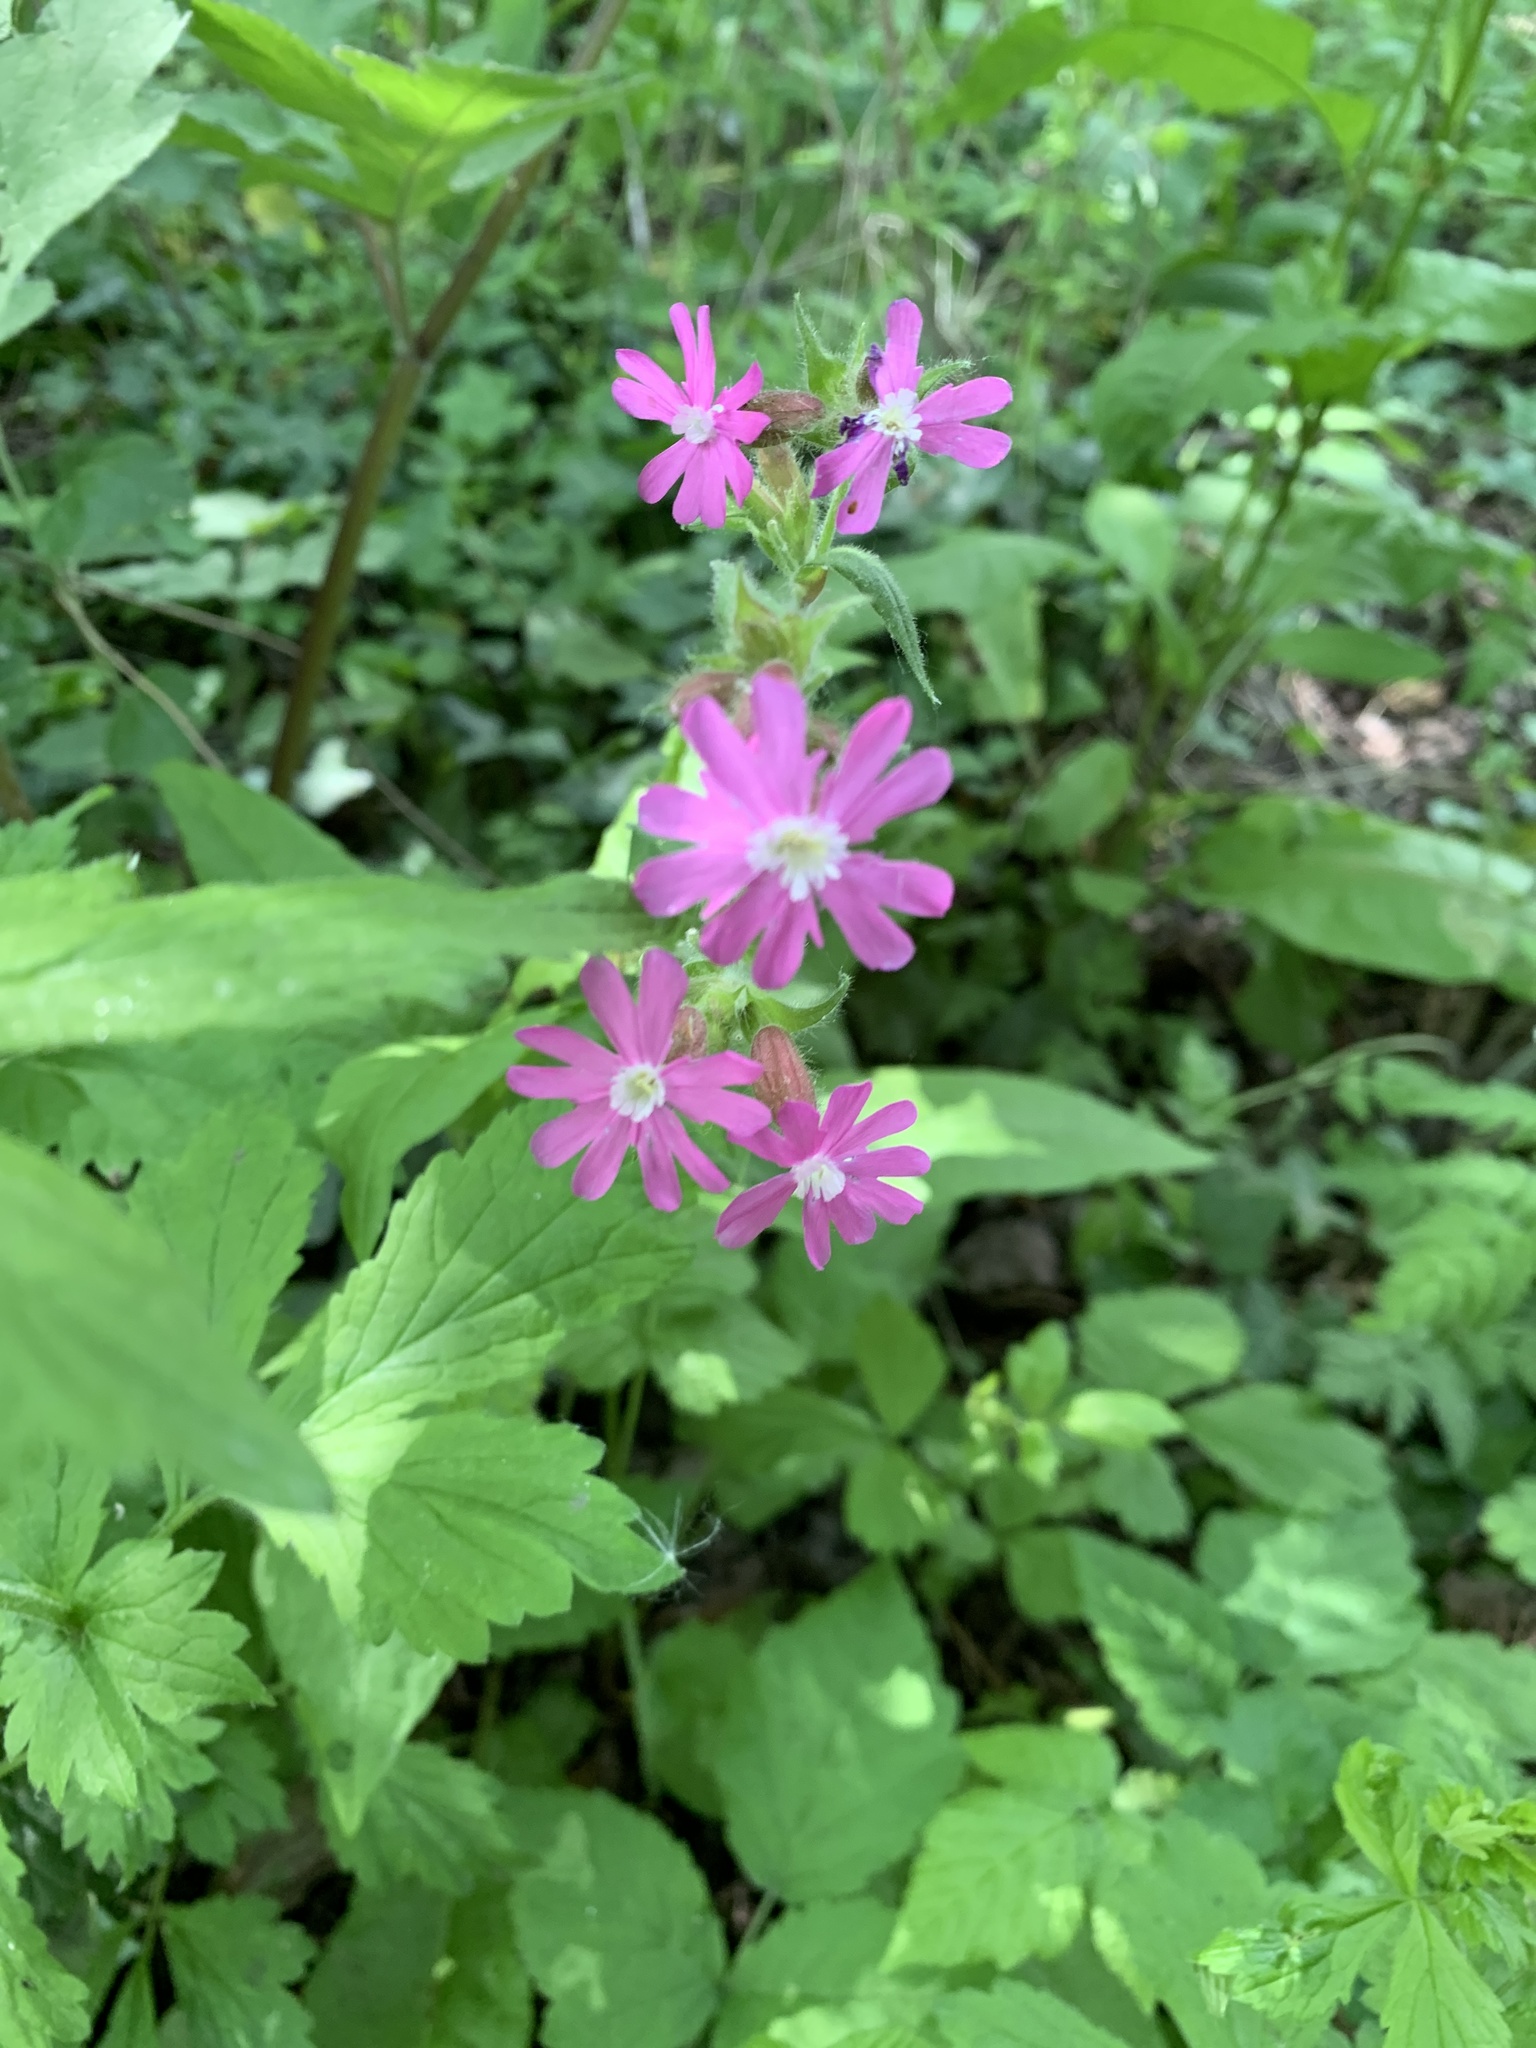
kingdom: Plantae
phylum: Tracheophyta
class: Magnoliopsida
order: Caryophyllales
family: Caryophyllaceae
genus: Silene
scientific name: Silene dioica
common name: Red campion
